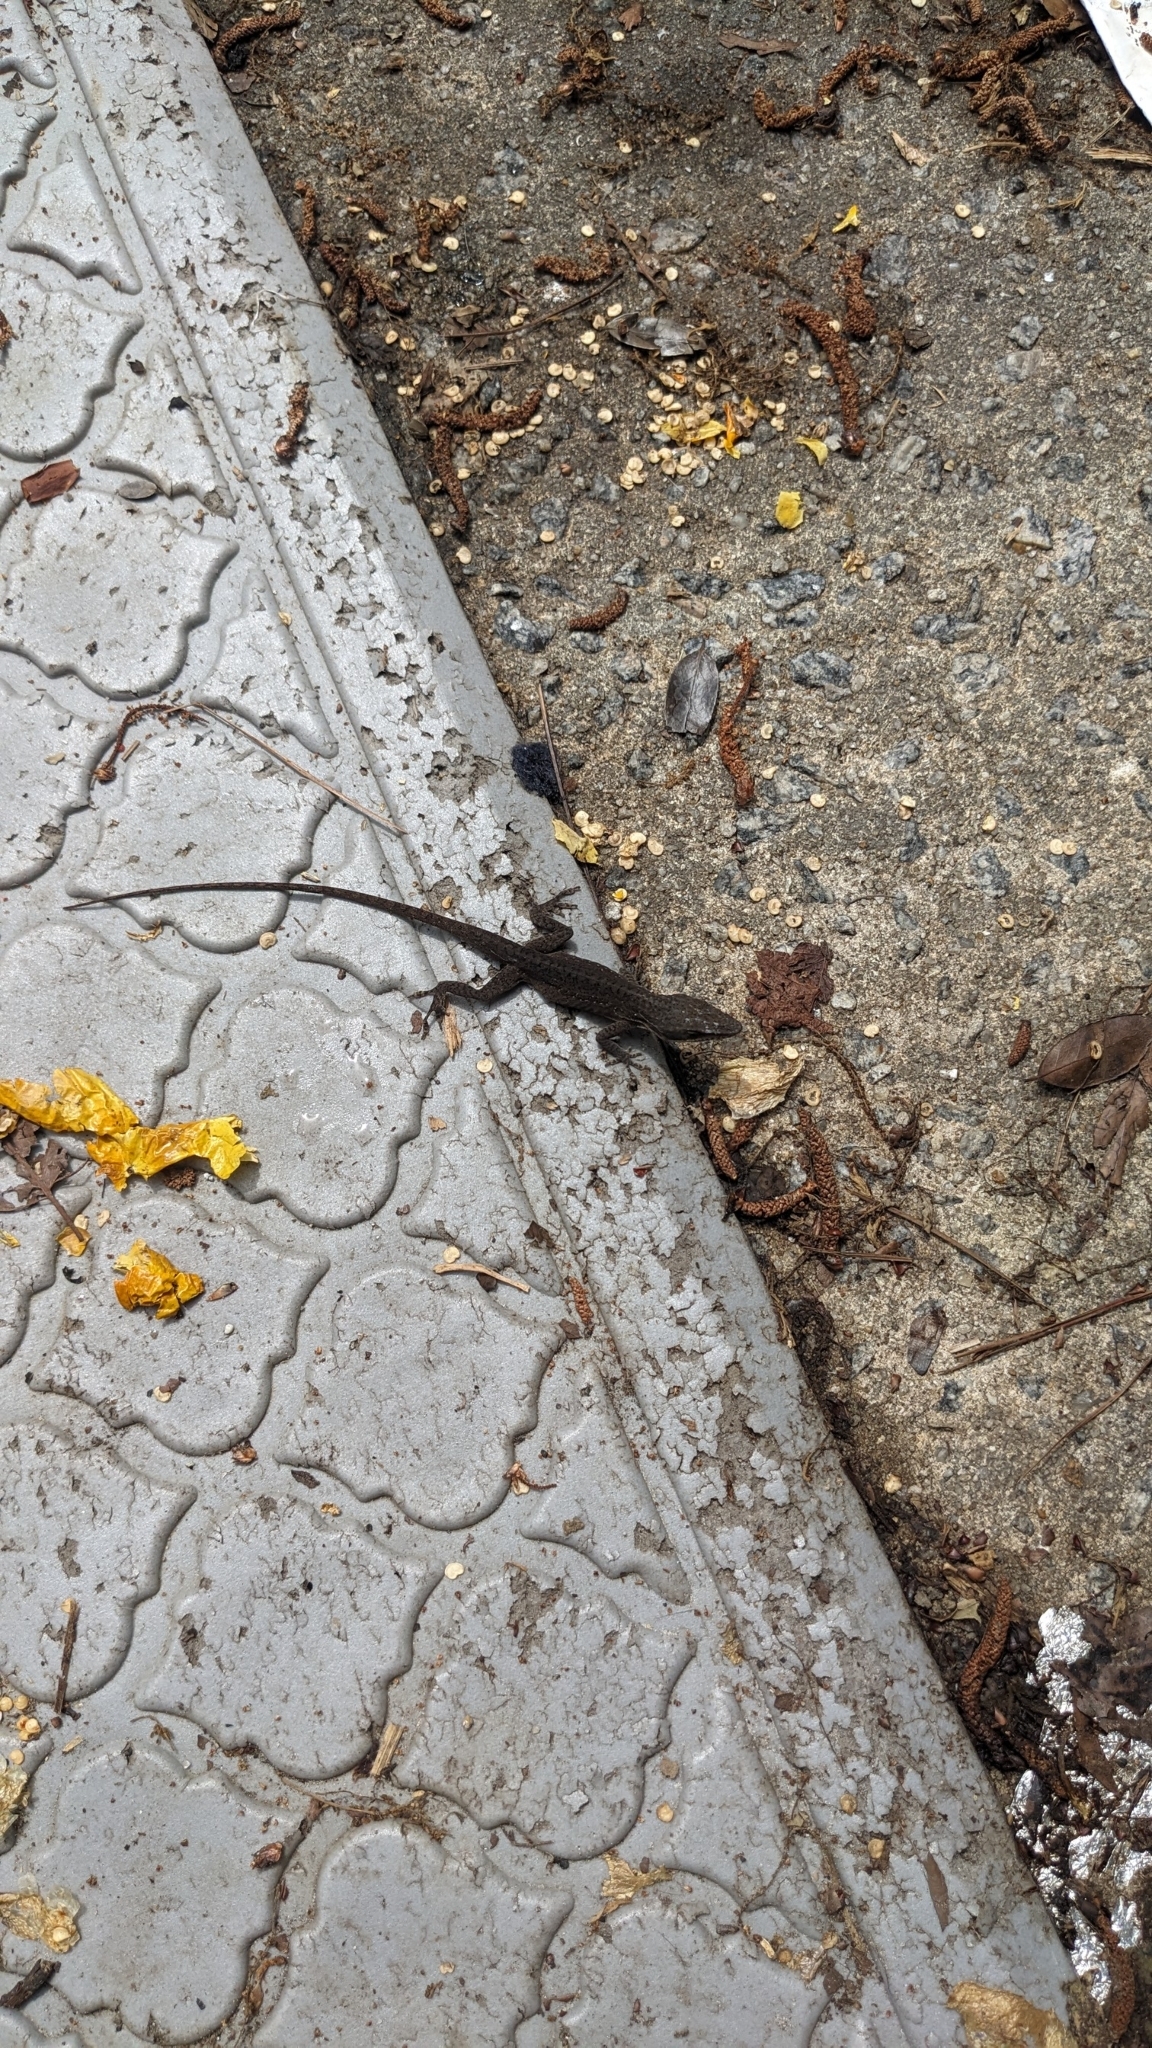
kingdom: Animalia
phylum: Chordata
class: Squamata
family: Dactyloidae
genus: Anolis
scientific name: Anolis carolinensis
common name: Green anole
